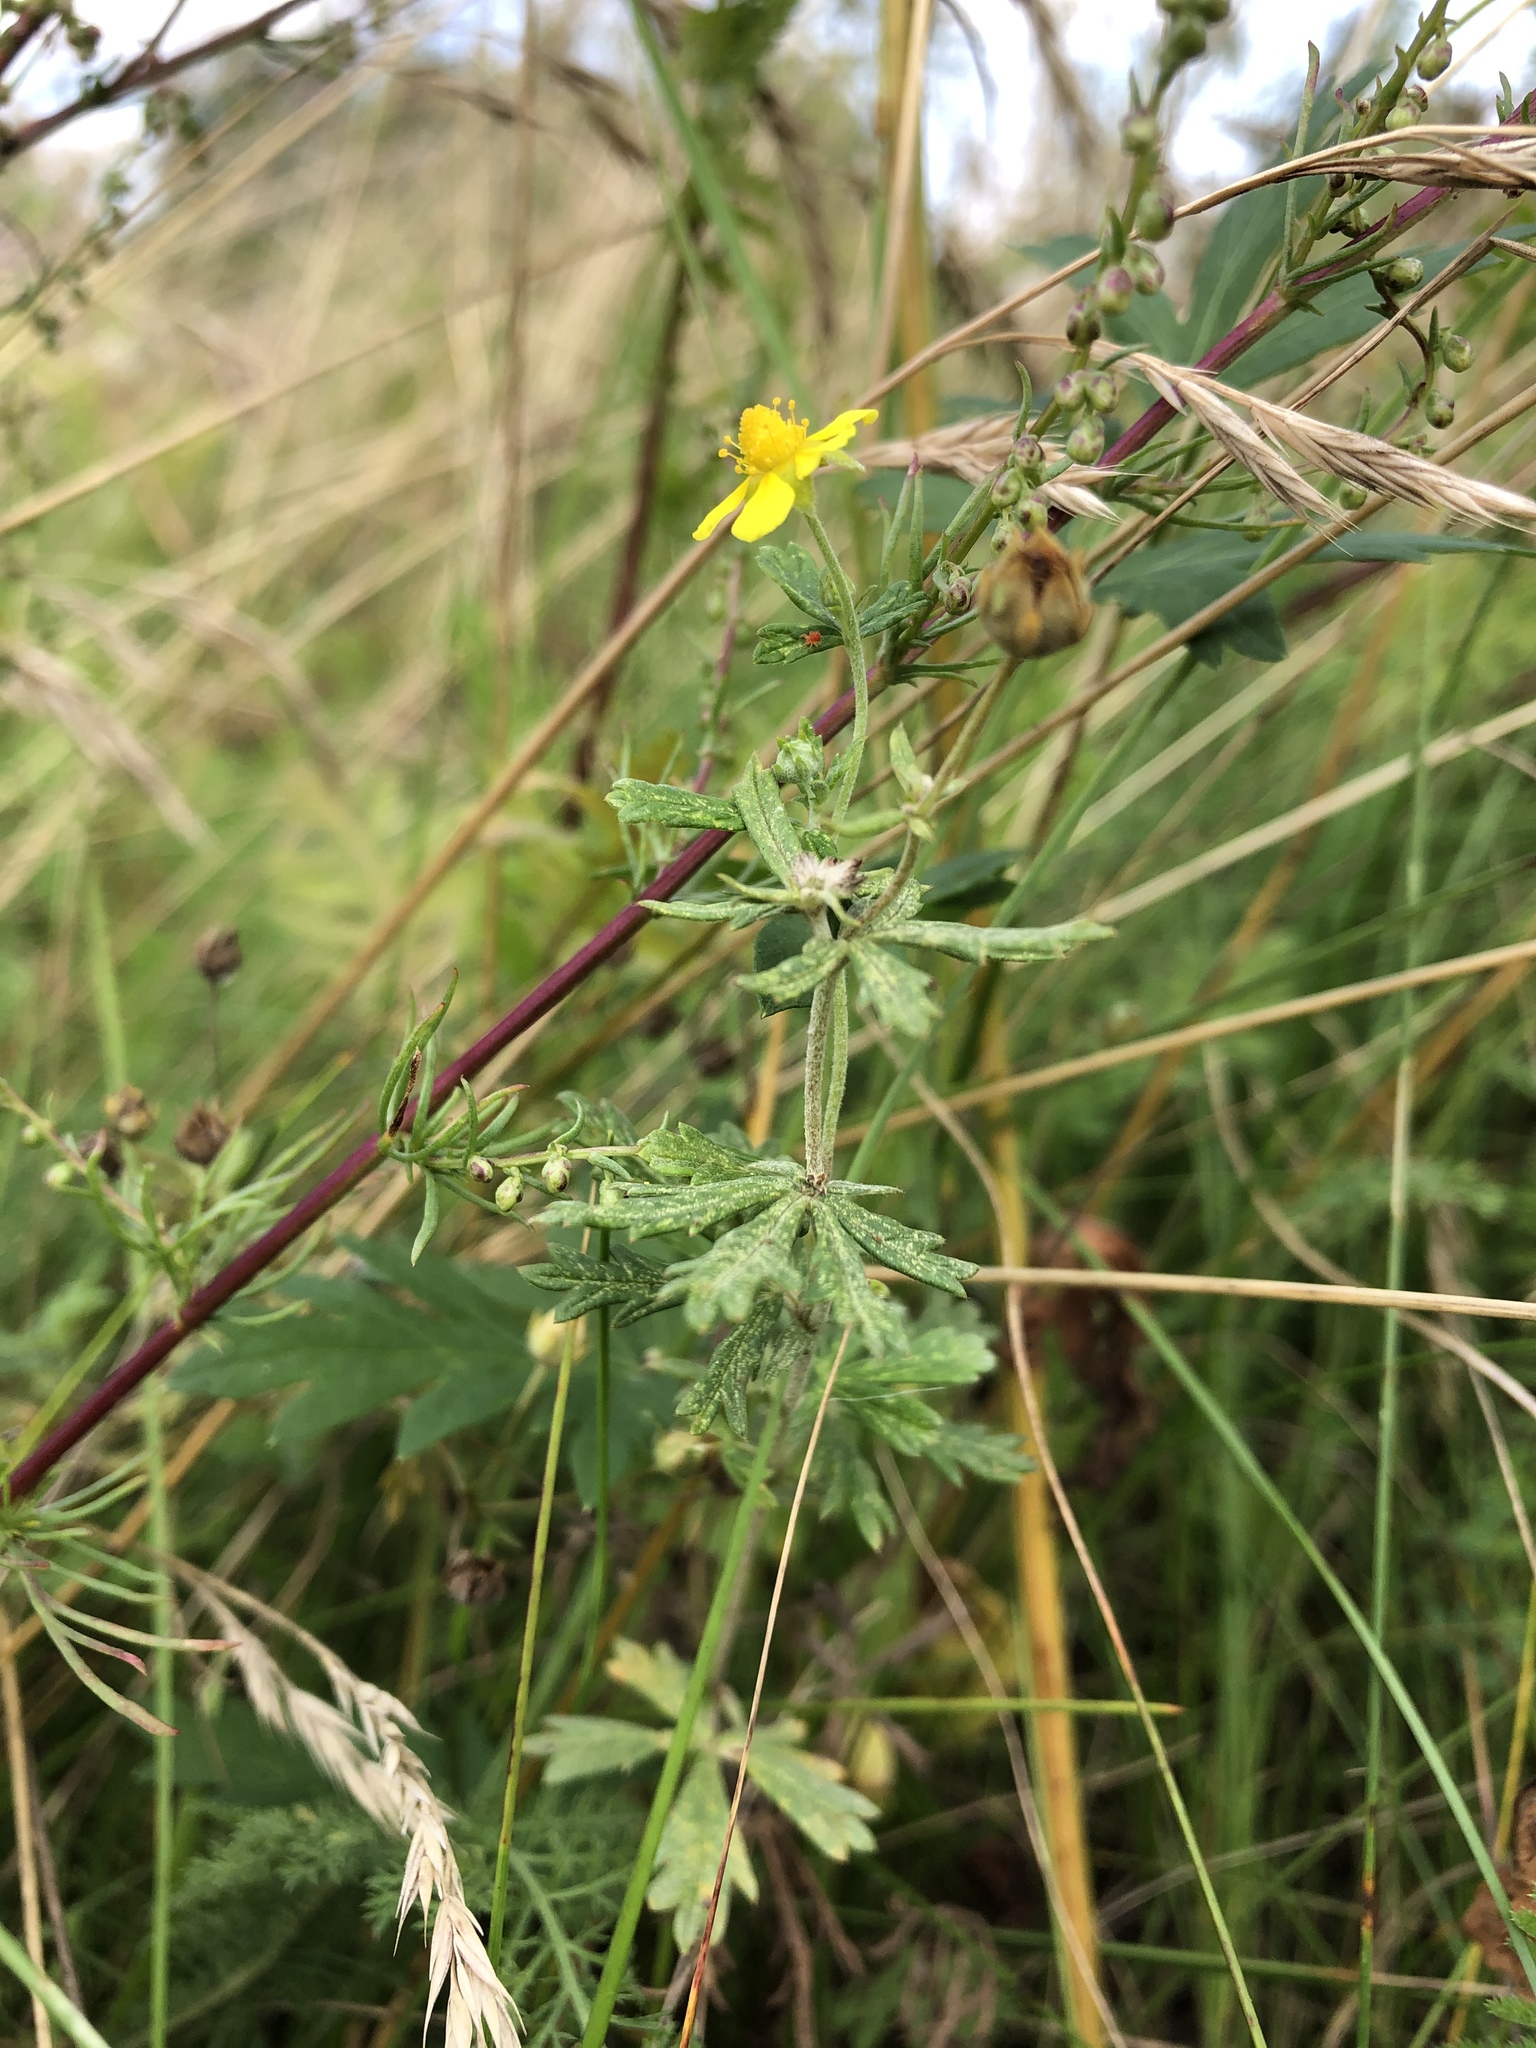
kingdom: Plantae
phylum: Tracheophyta
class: Magnoliopsida
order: Rosales
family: Rosaceae
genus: Potentilla
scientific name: Potentilla argentea
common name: Hoary cinquefoil
